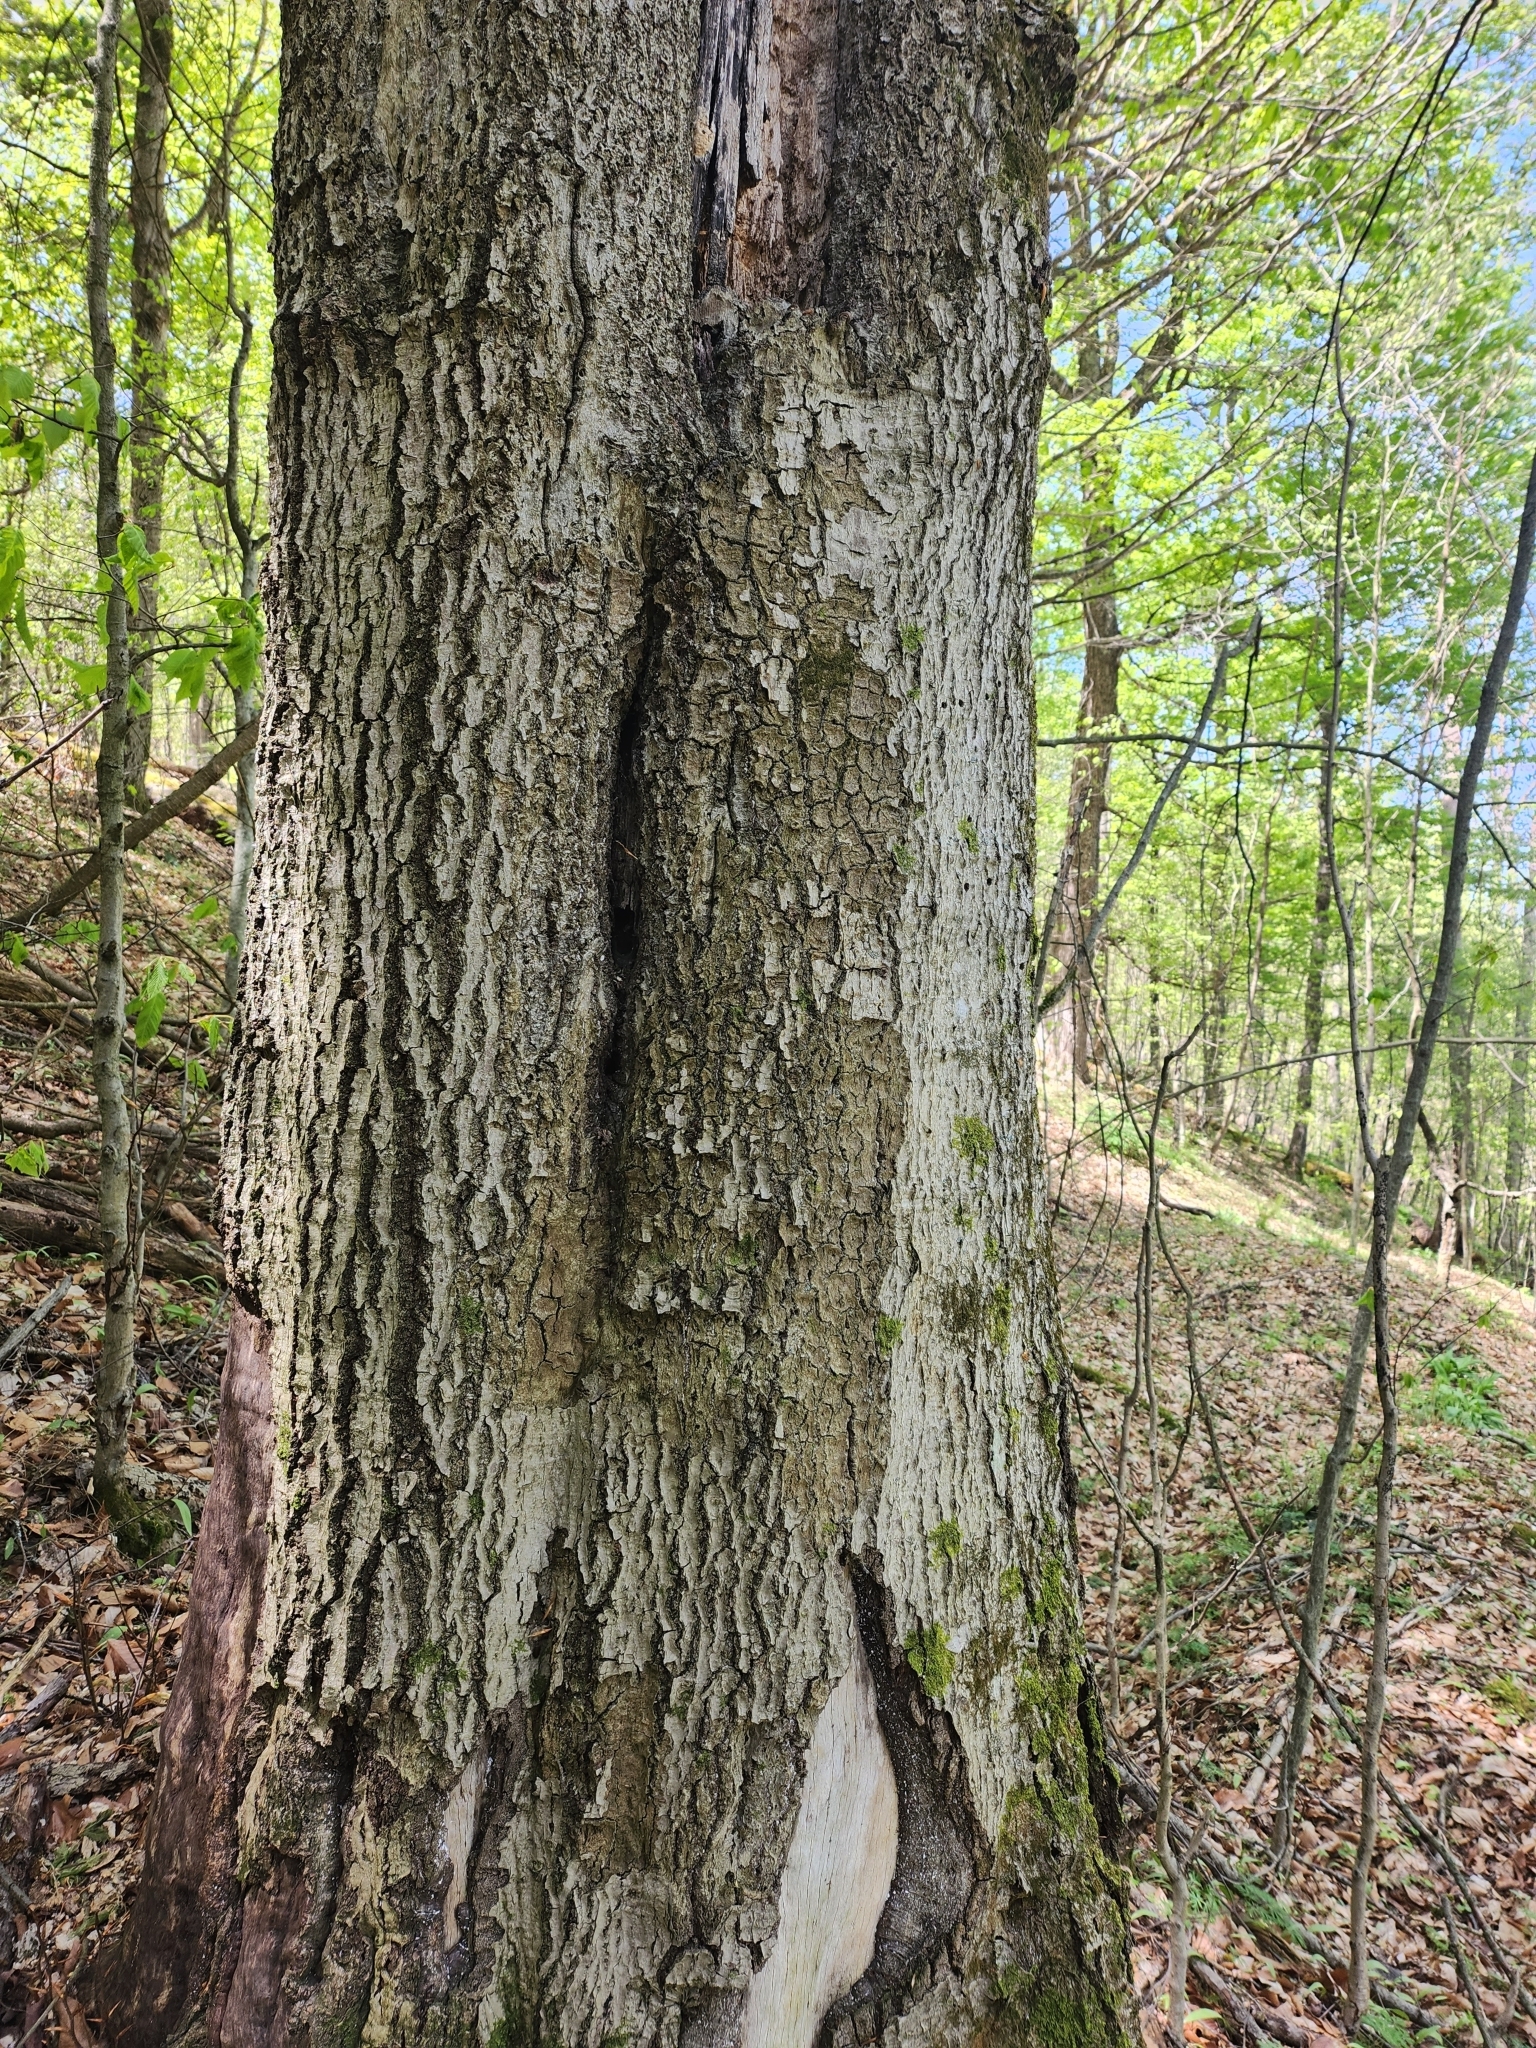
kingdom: Fungi
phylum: Ascomycota
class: Sordariomycetes
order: Hypocreales
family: Nectriaceae
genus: Neonectria
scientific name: Neonectria ditissima
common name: Apple canker
